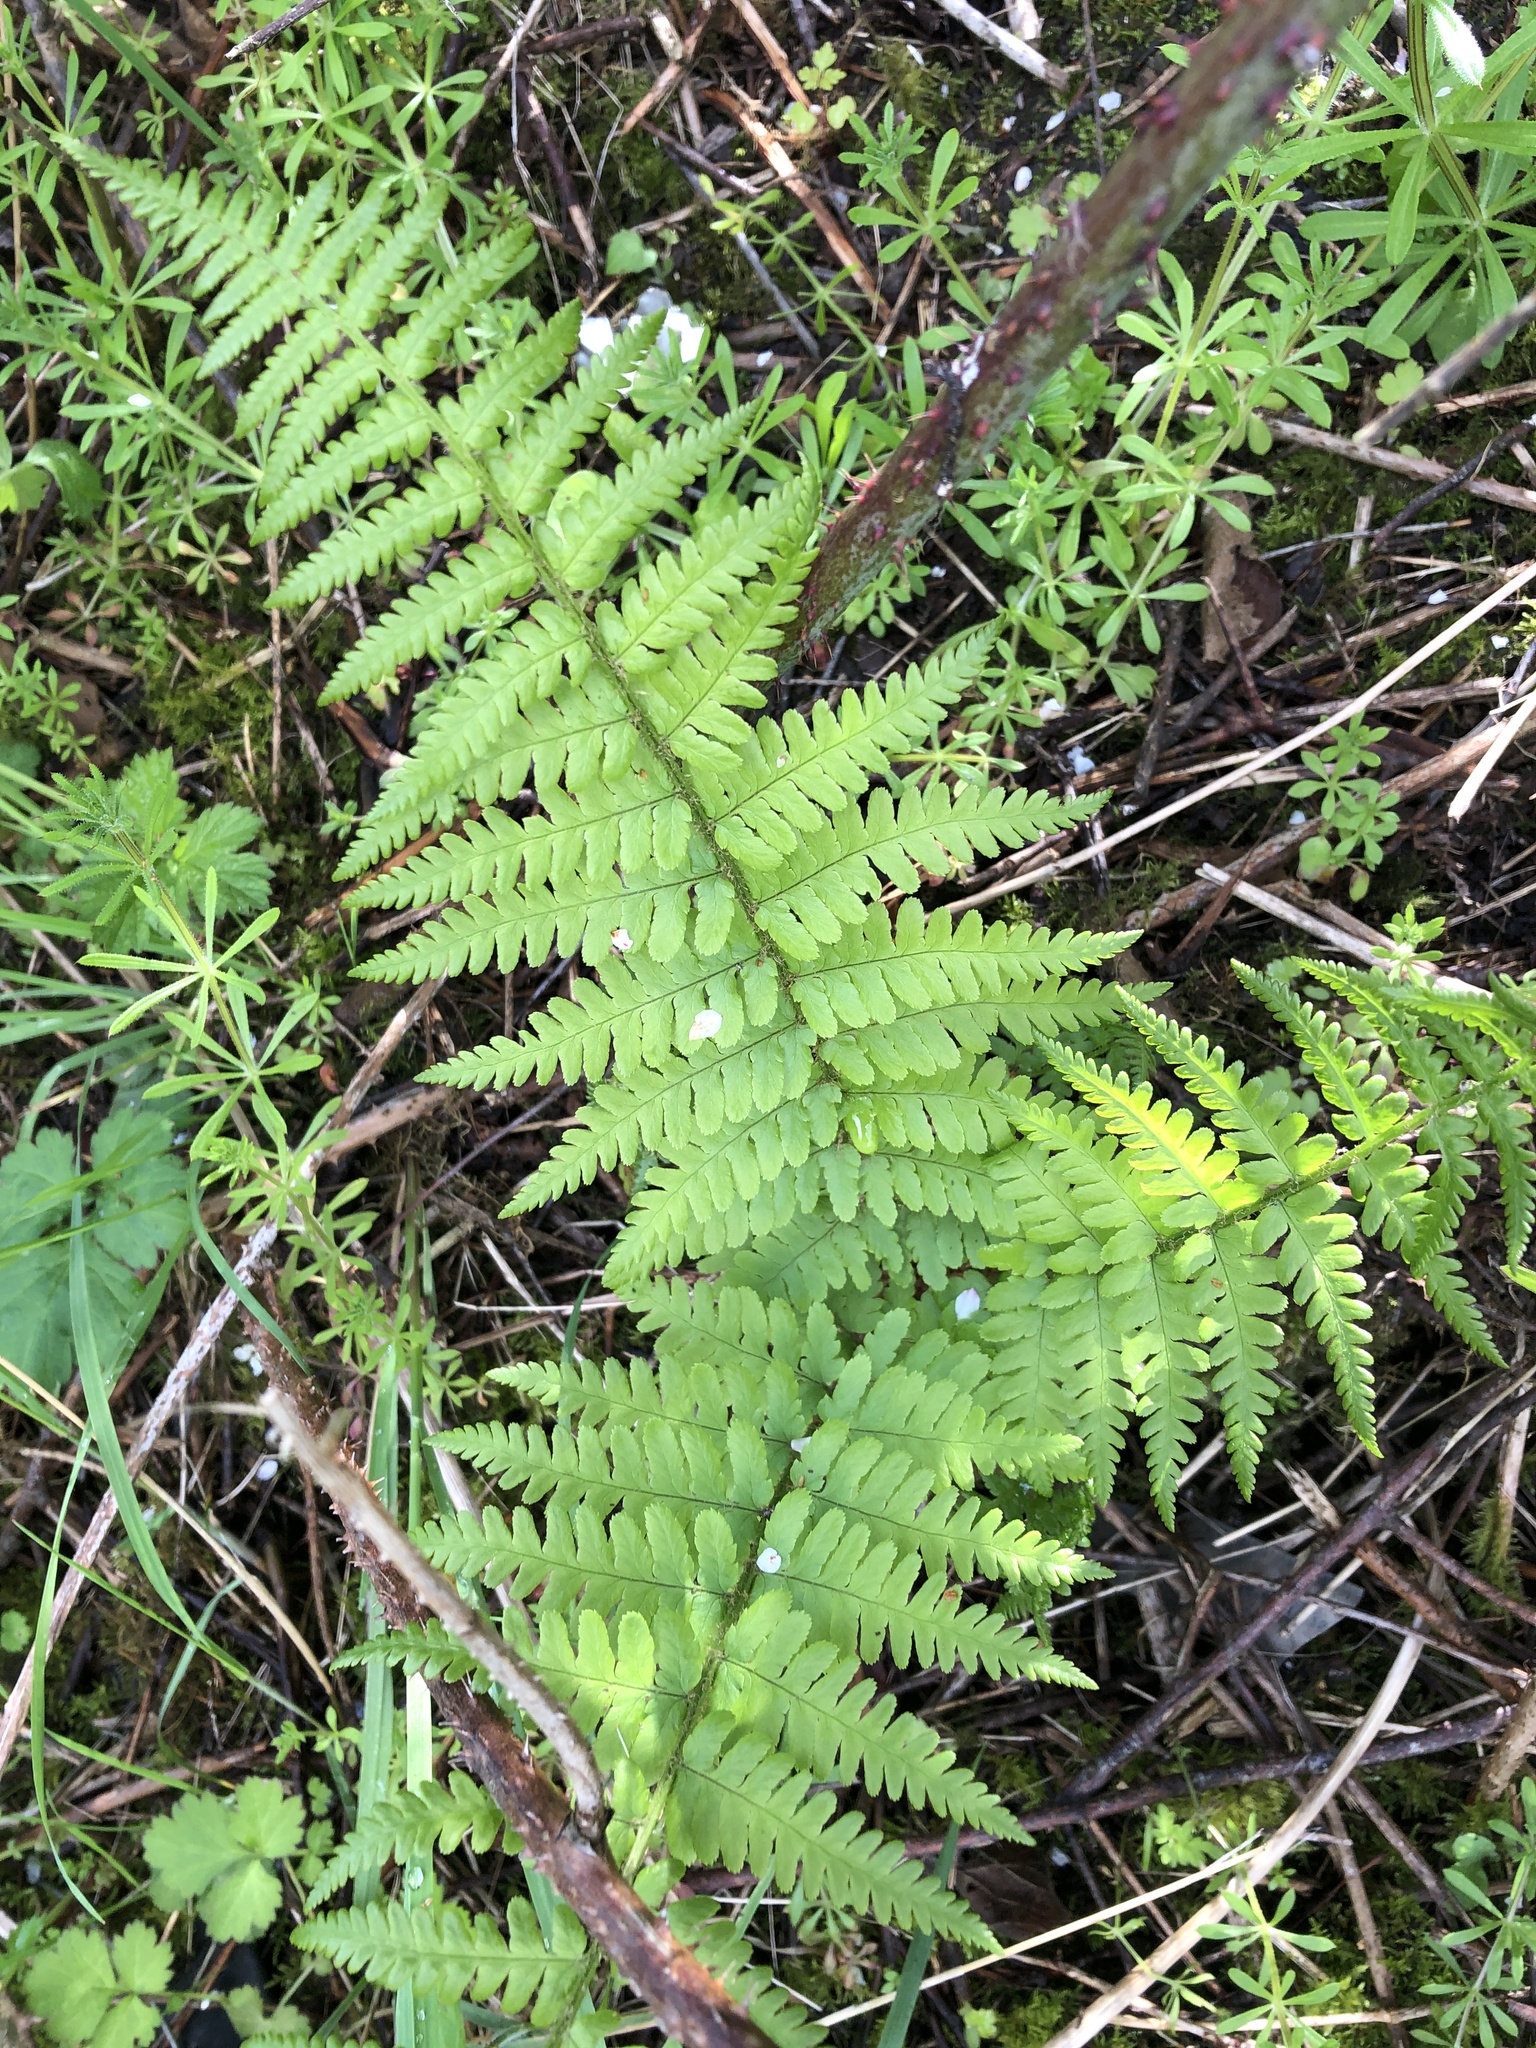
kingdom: Plantae
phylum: Tracheophyta
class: Polypodiopsida
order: Polypodiales
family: Dryopteridaceae
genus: Dryopteris
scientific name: Dryopteris filix-mas
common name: Male fern
